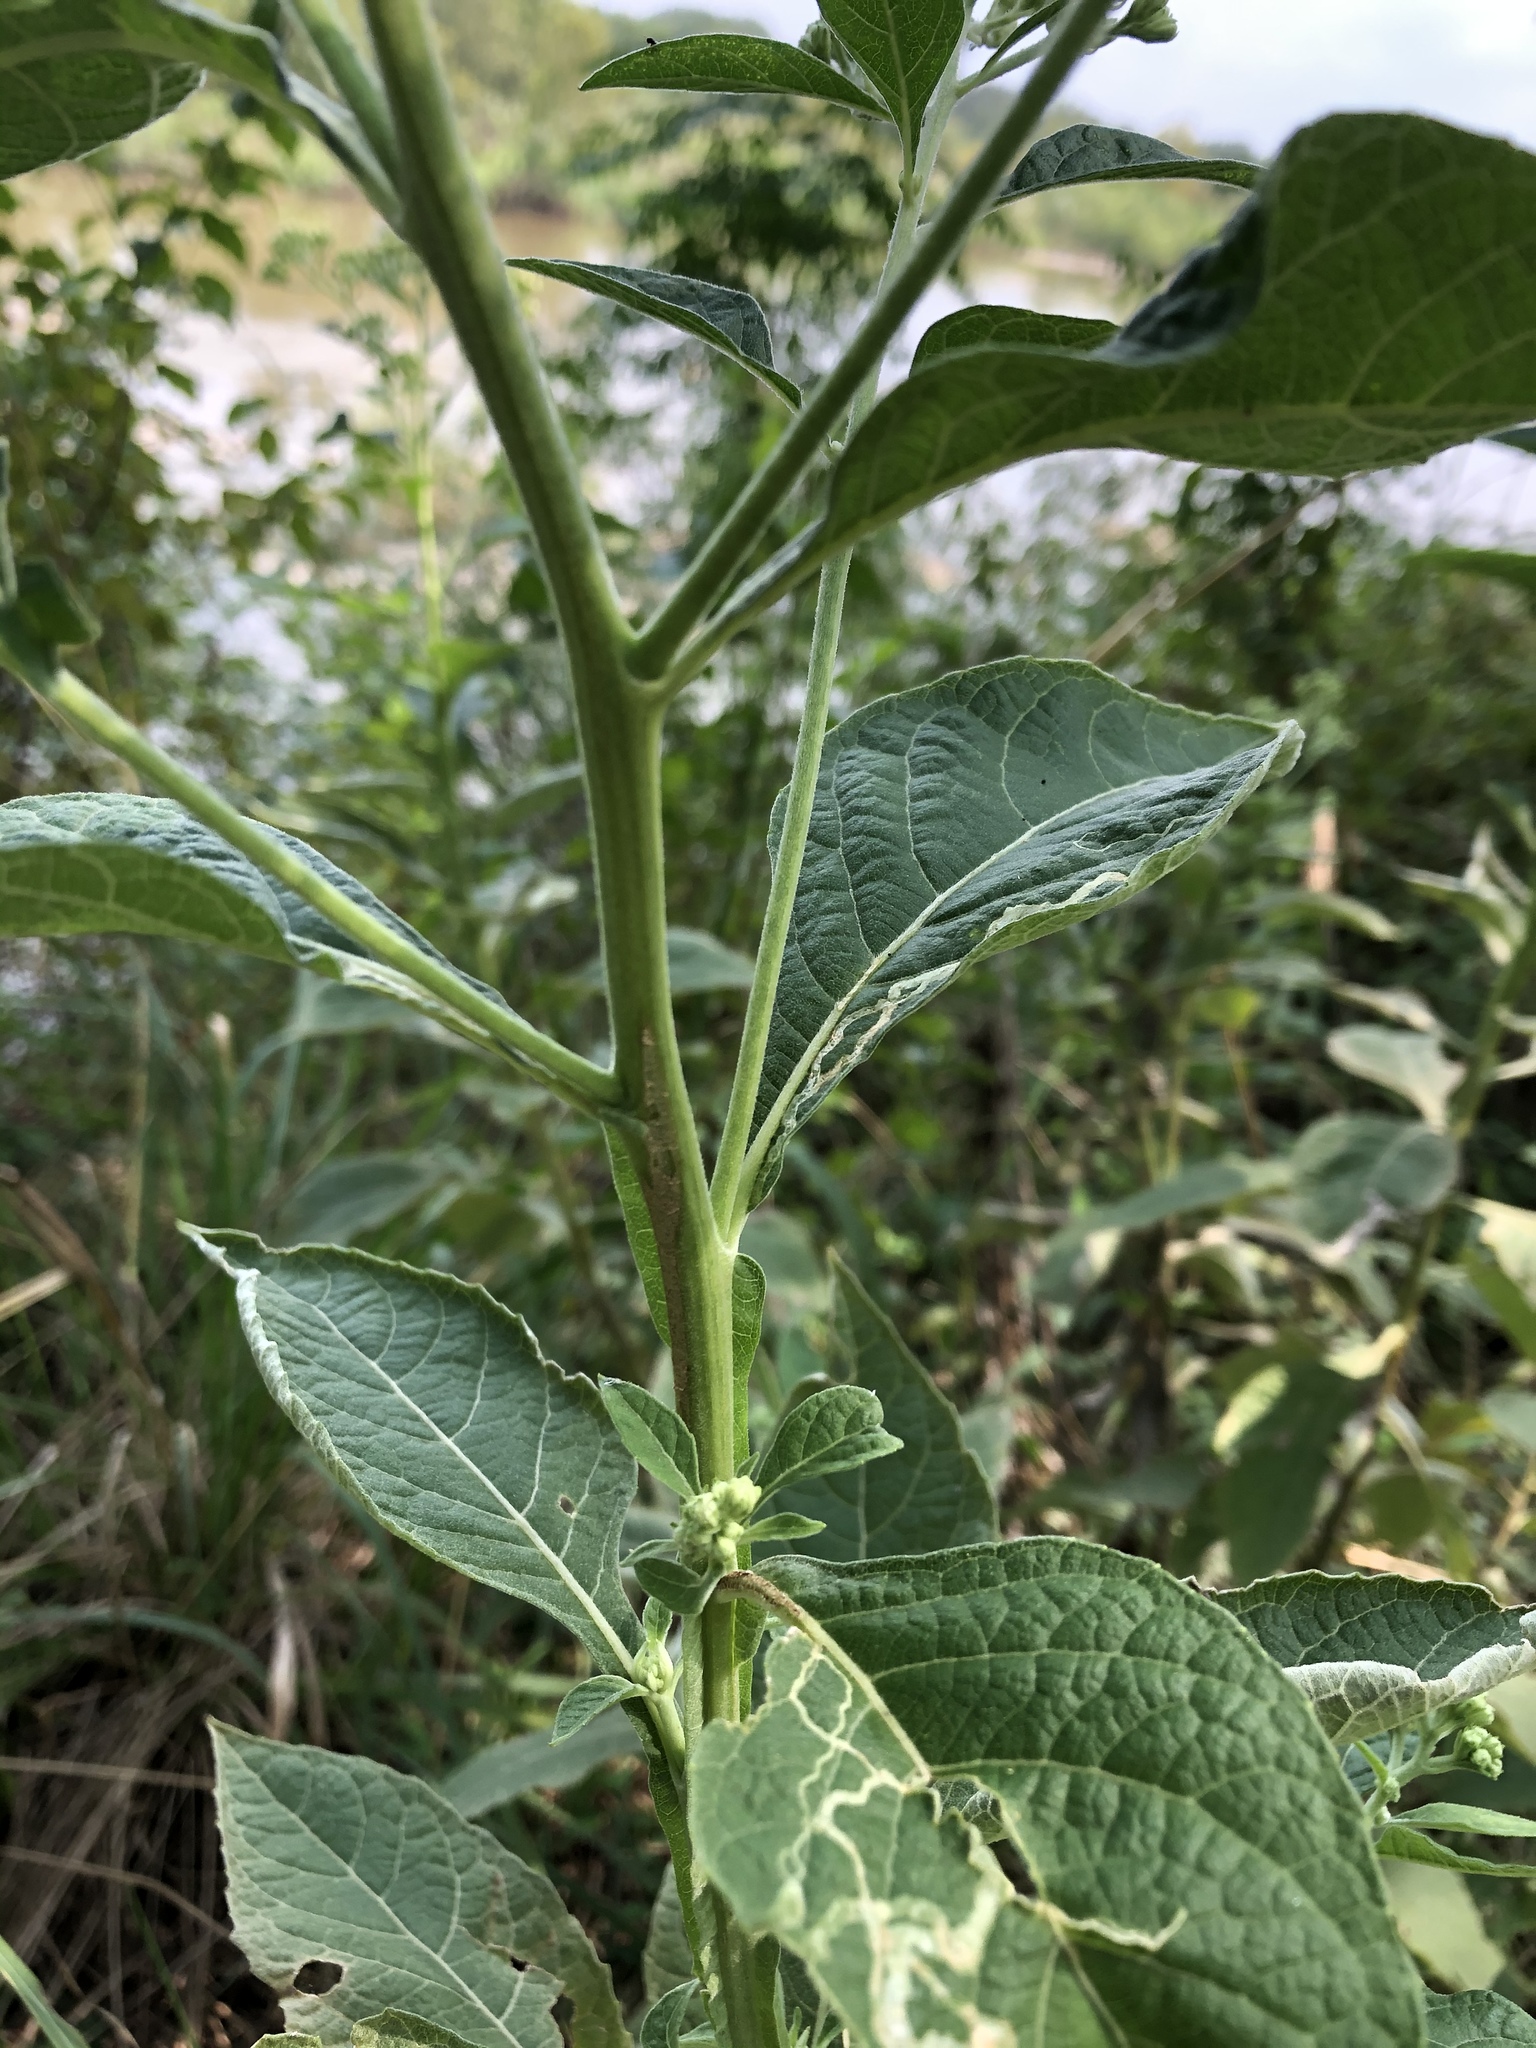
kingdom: Plantae
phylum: Tracheophyta
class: Magnoliopsida
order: Asterales
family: Asteraceae
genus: Verbesina
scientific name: Verbesina virginica
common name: Frostweed
